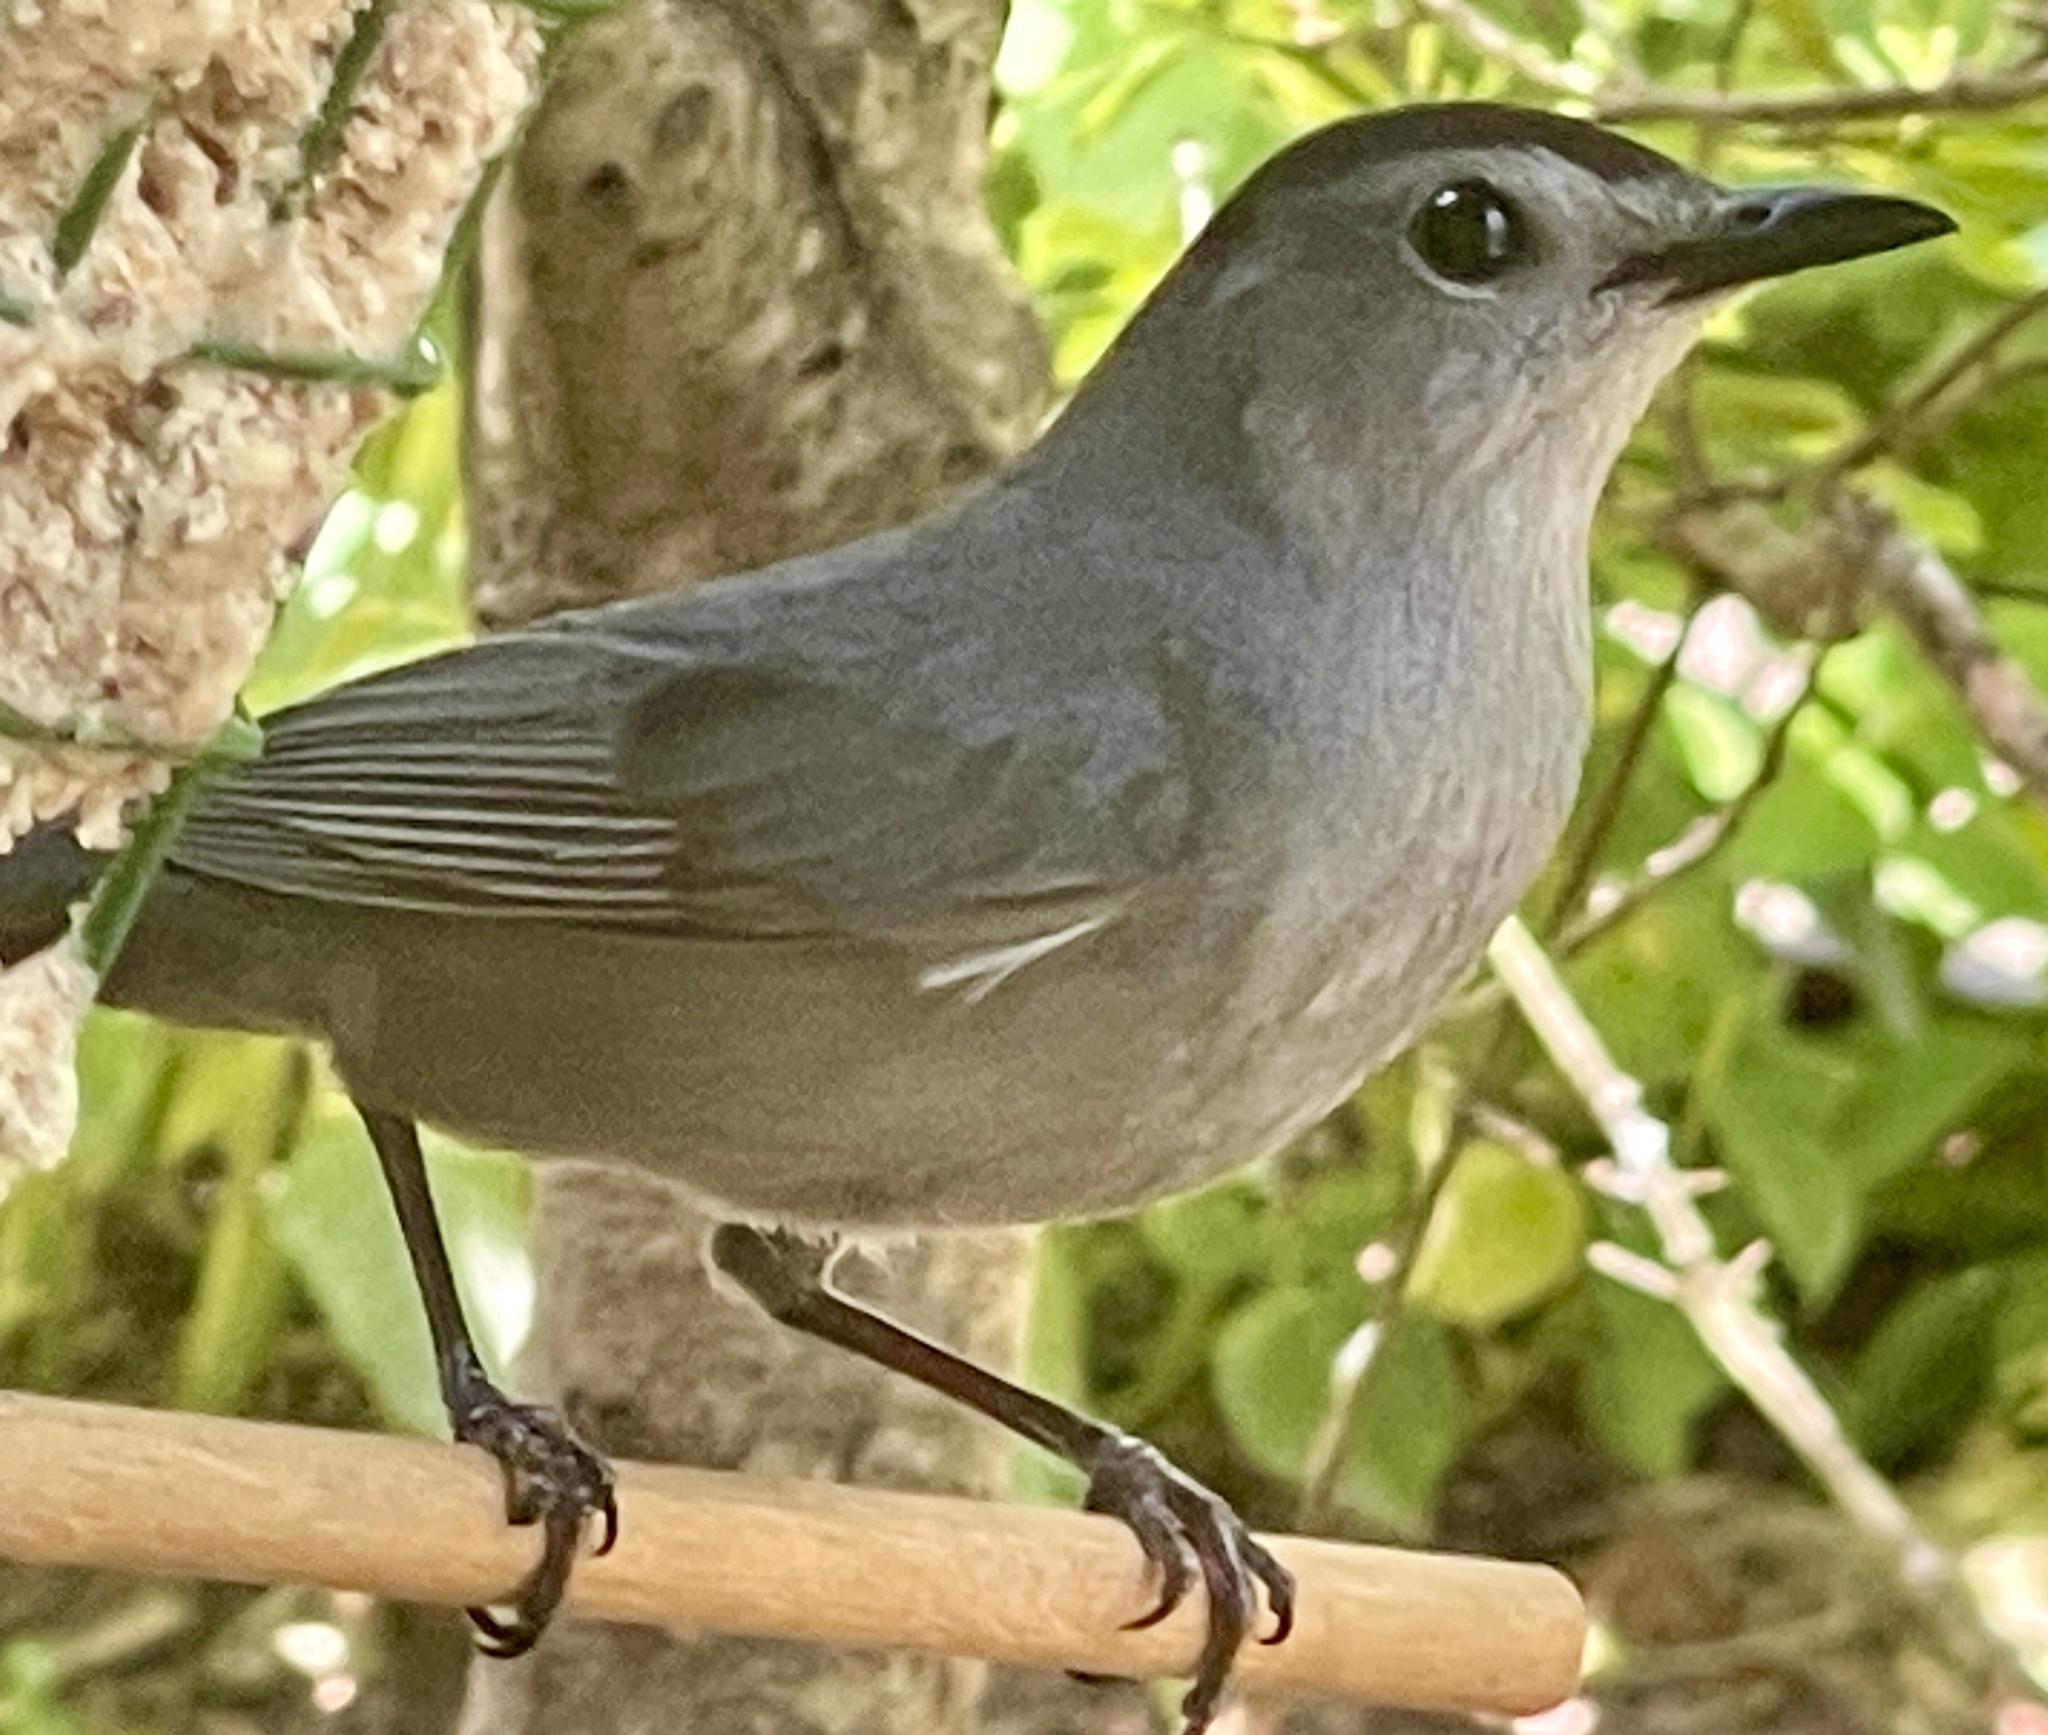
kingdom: Animalia
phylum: Chordata
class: Aves
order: Passeriformes
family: Mimidae
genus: Dumetella
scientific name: Dumetella carolinensis
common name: Gray catbird
